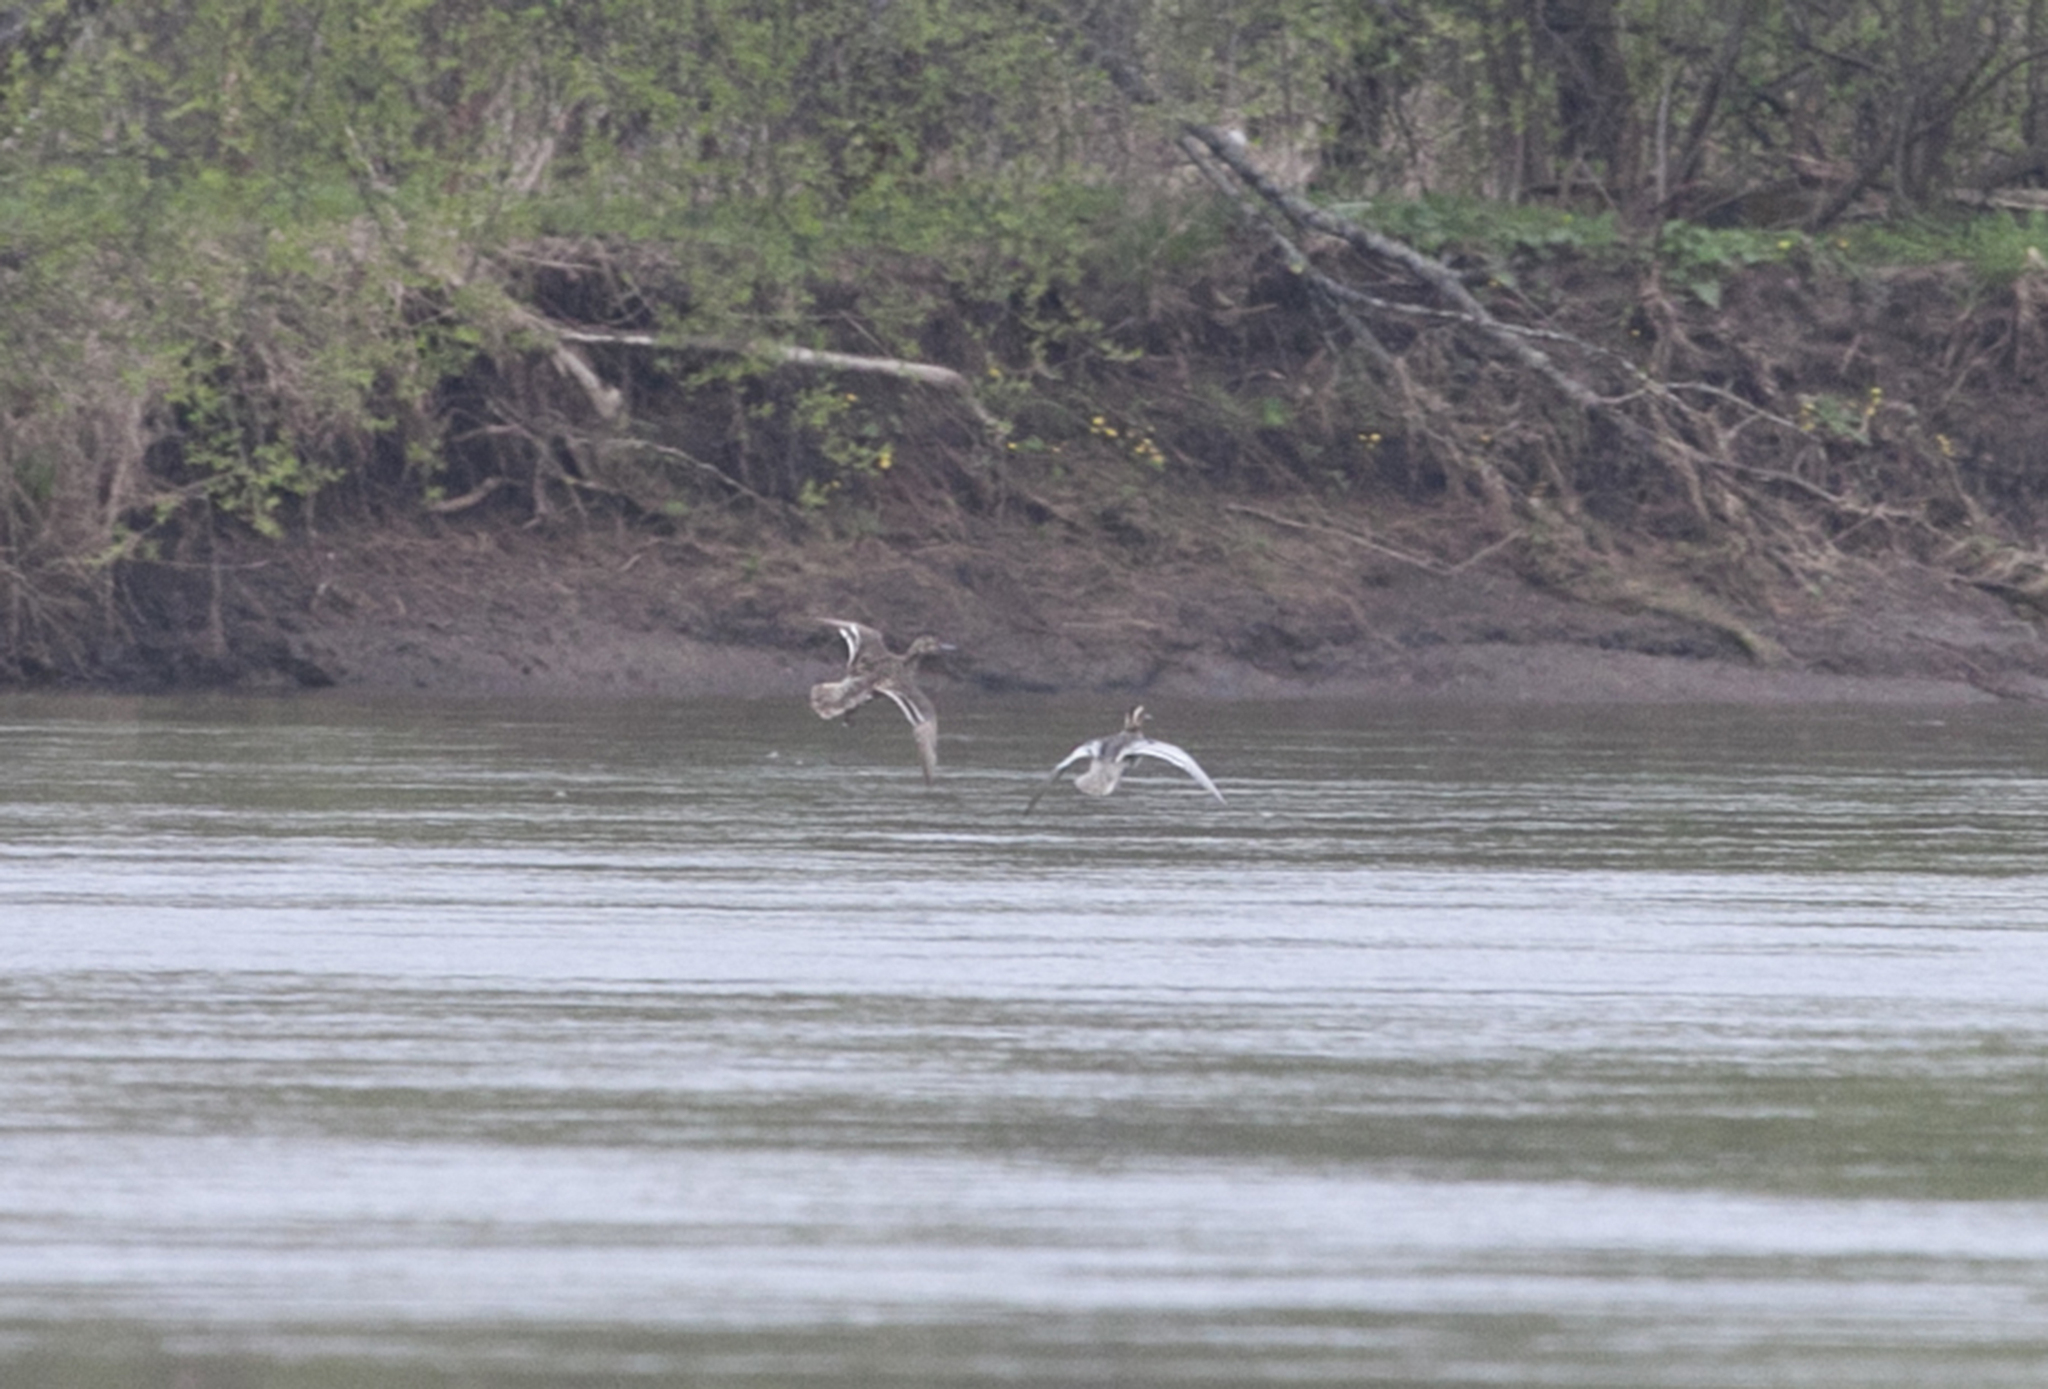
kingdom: Animalia
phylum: Chordata
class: Aves
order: Anseriformes
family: Anatidae
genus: Spatula
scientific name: Spatula querquedula
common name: Garganey
